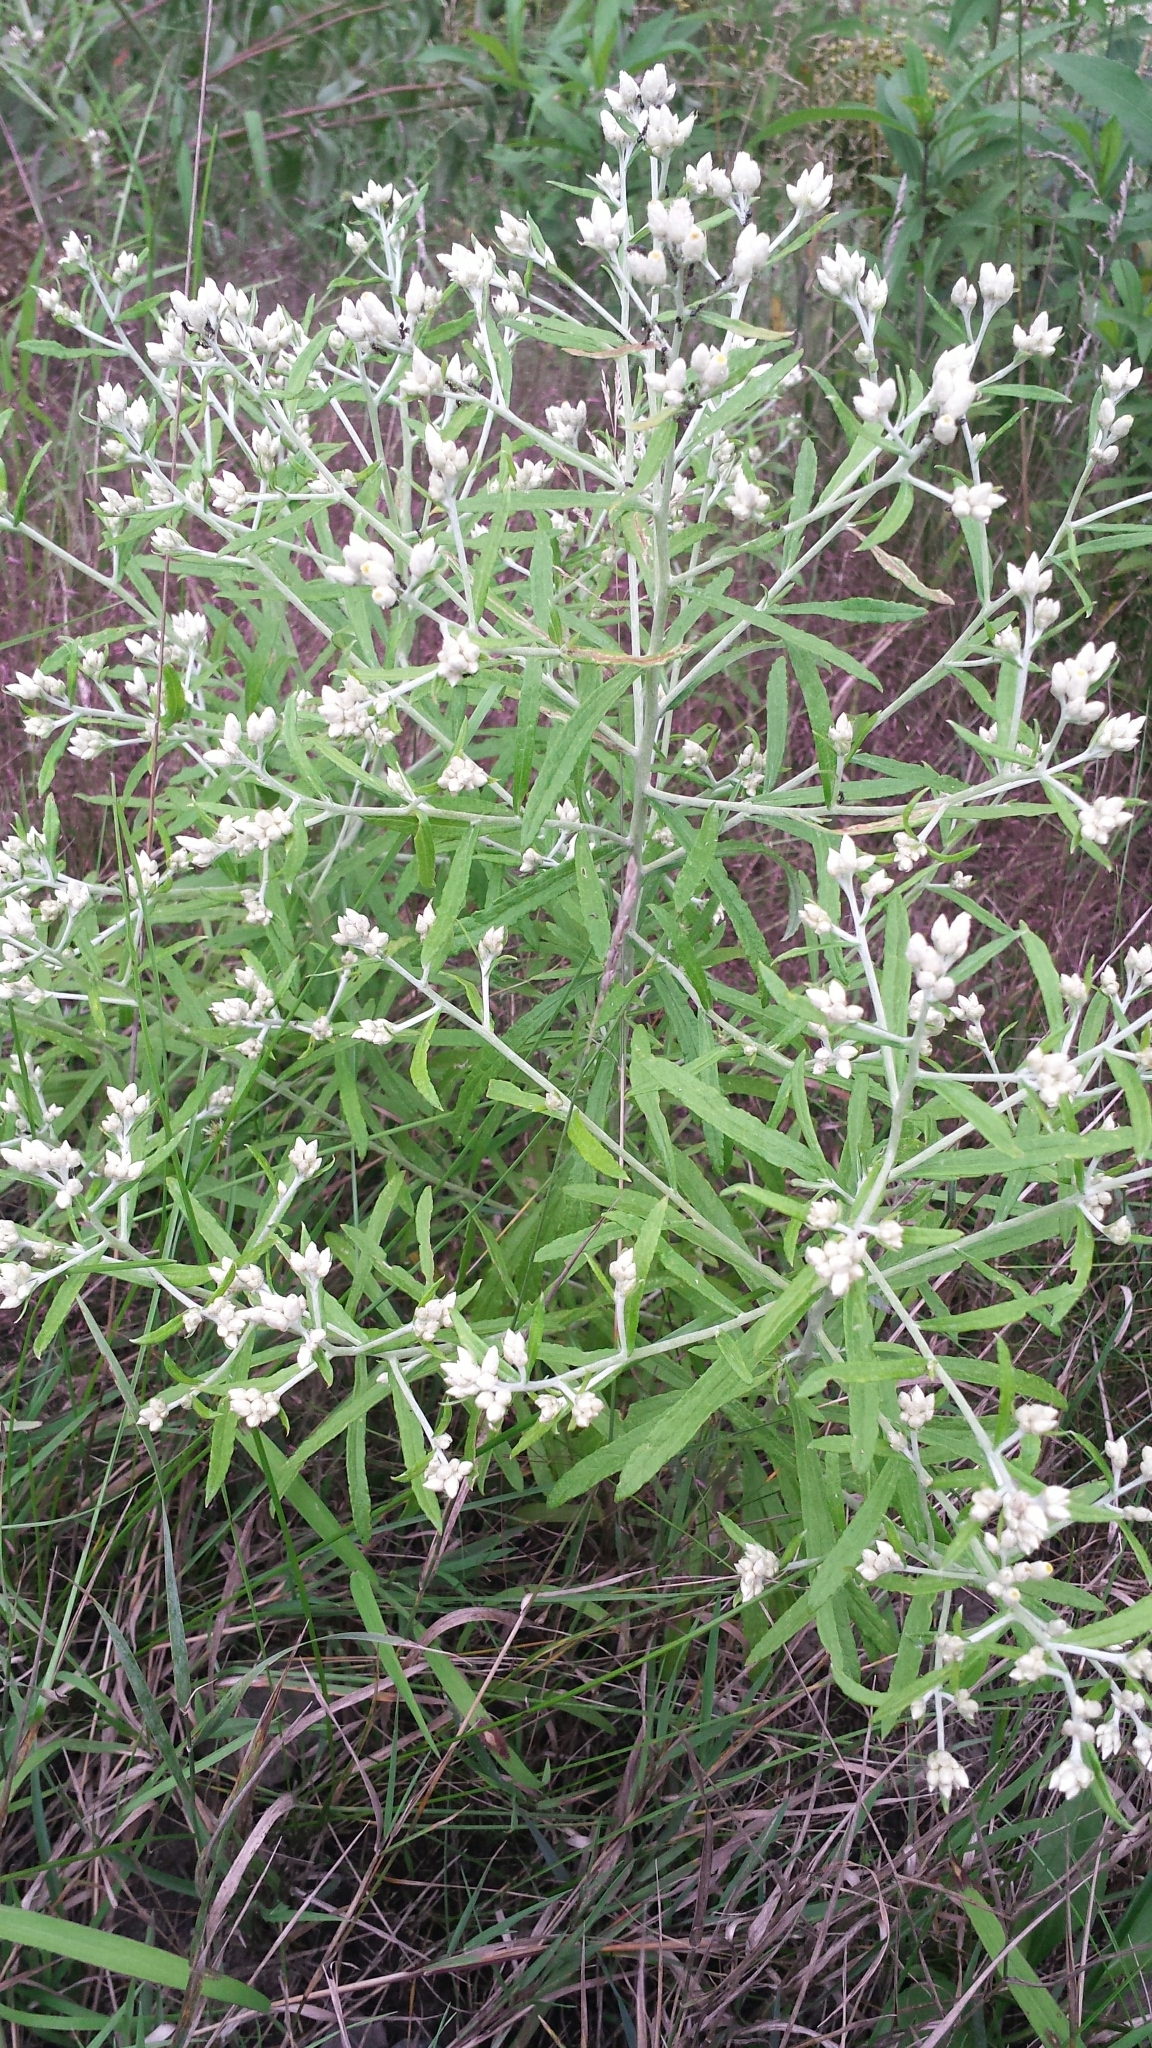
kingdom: Plantae
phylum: Tracheophyta
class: Magnoliopsida
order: Asterales
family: Asteraceae
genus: Pseudognaphalium
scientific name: Pseudognaphalium obtusifolium
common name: Eastern rabbit-tobacco
